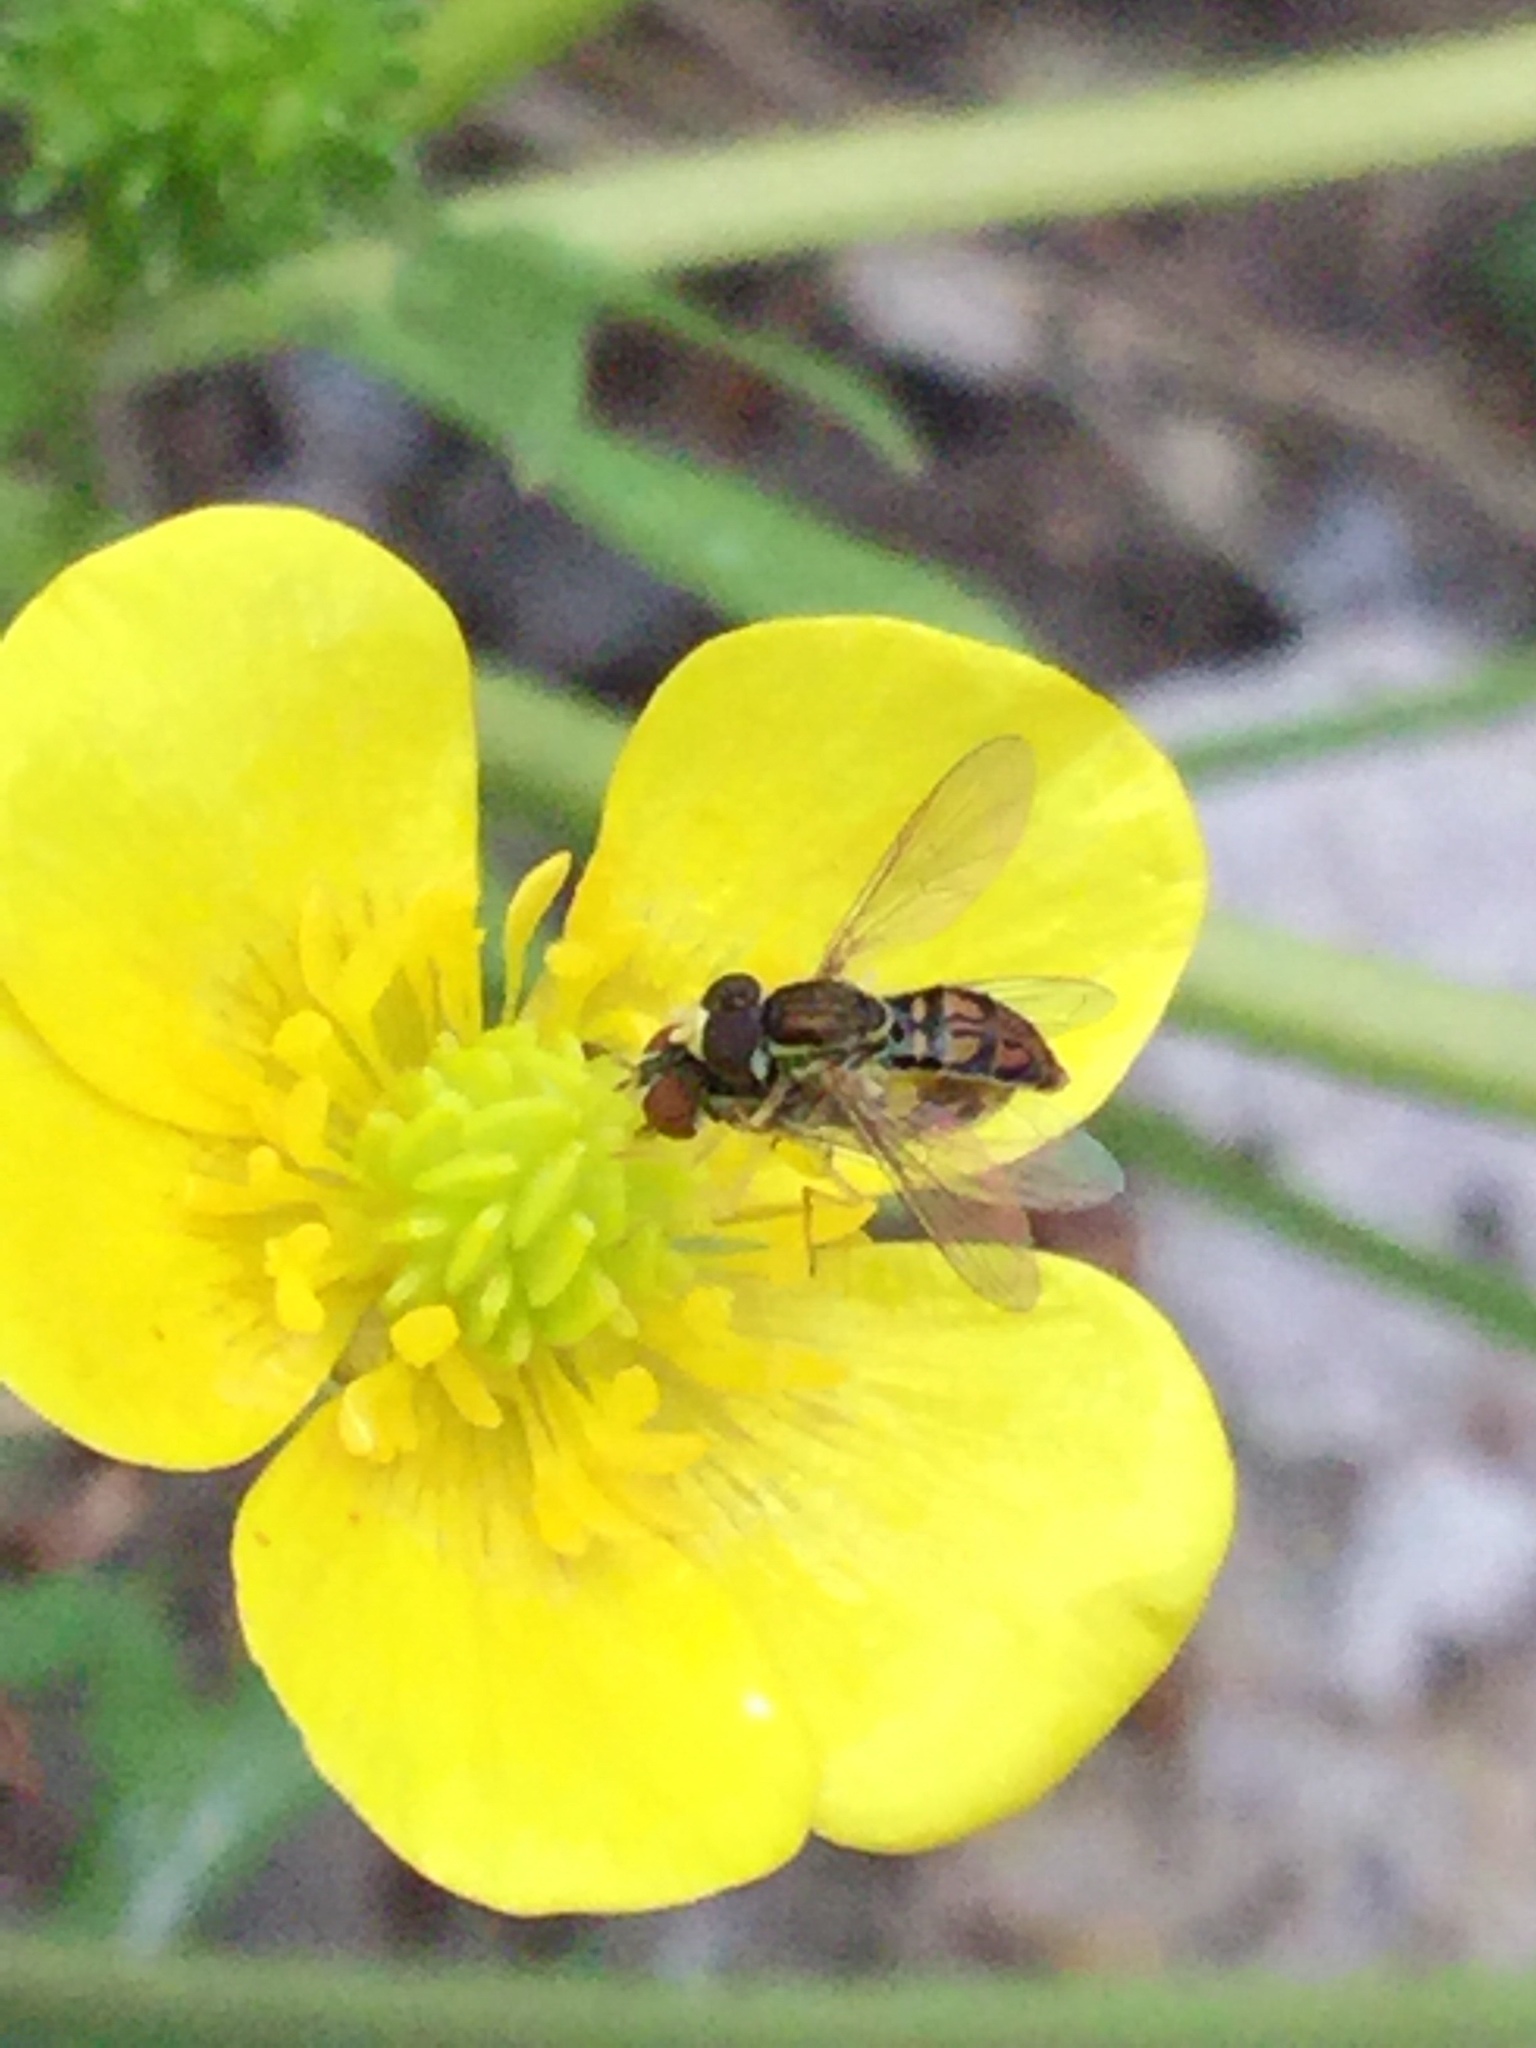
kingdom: Animalia
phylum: Arthropoda
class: Insecta
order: Diptera
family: Syrphidae
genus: Toxomerus
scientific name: Toxomerus marginatus
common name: Syrphid fly
